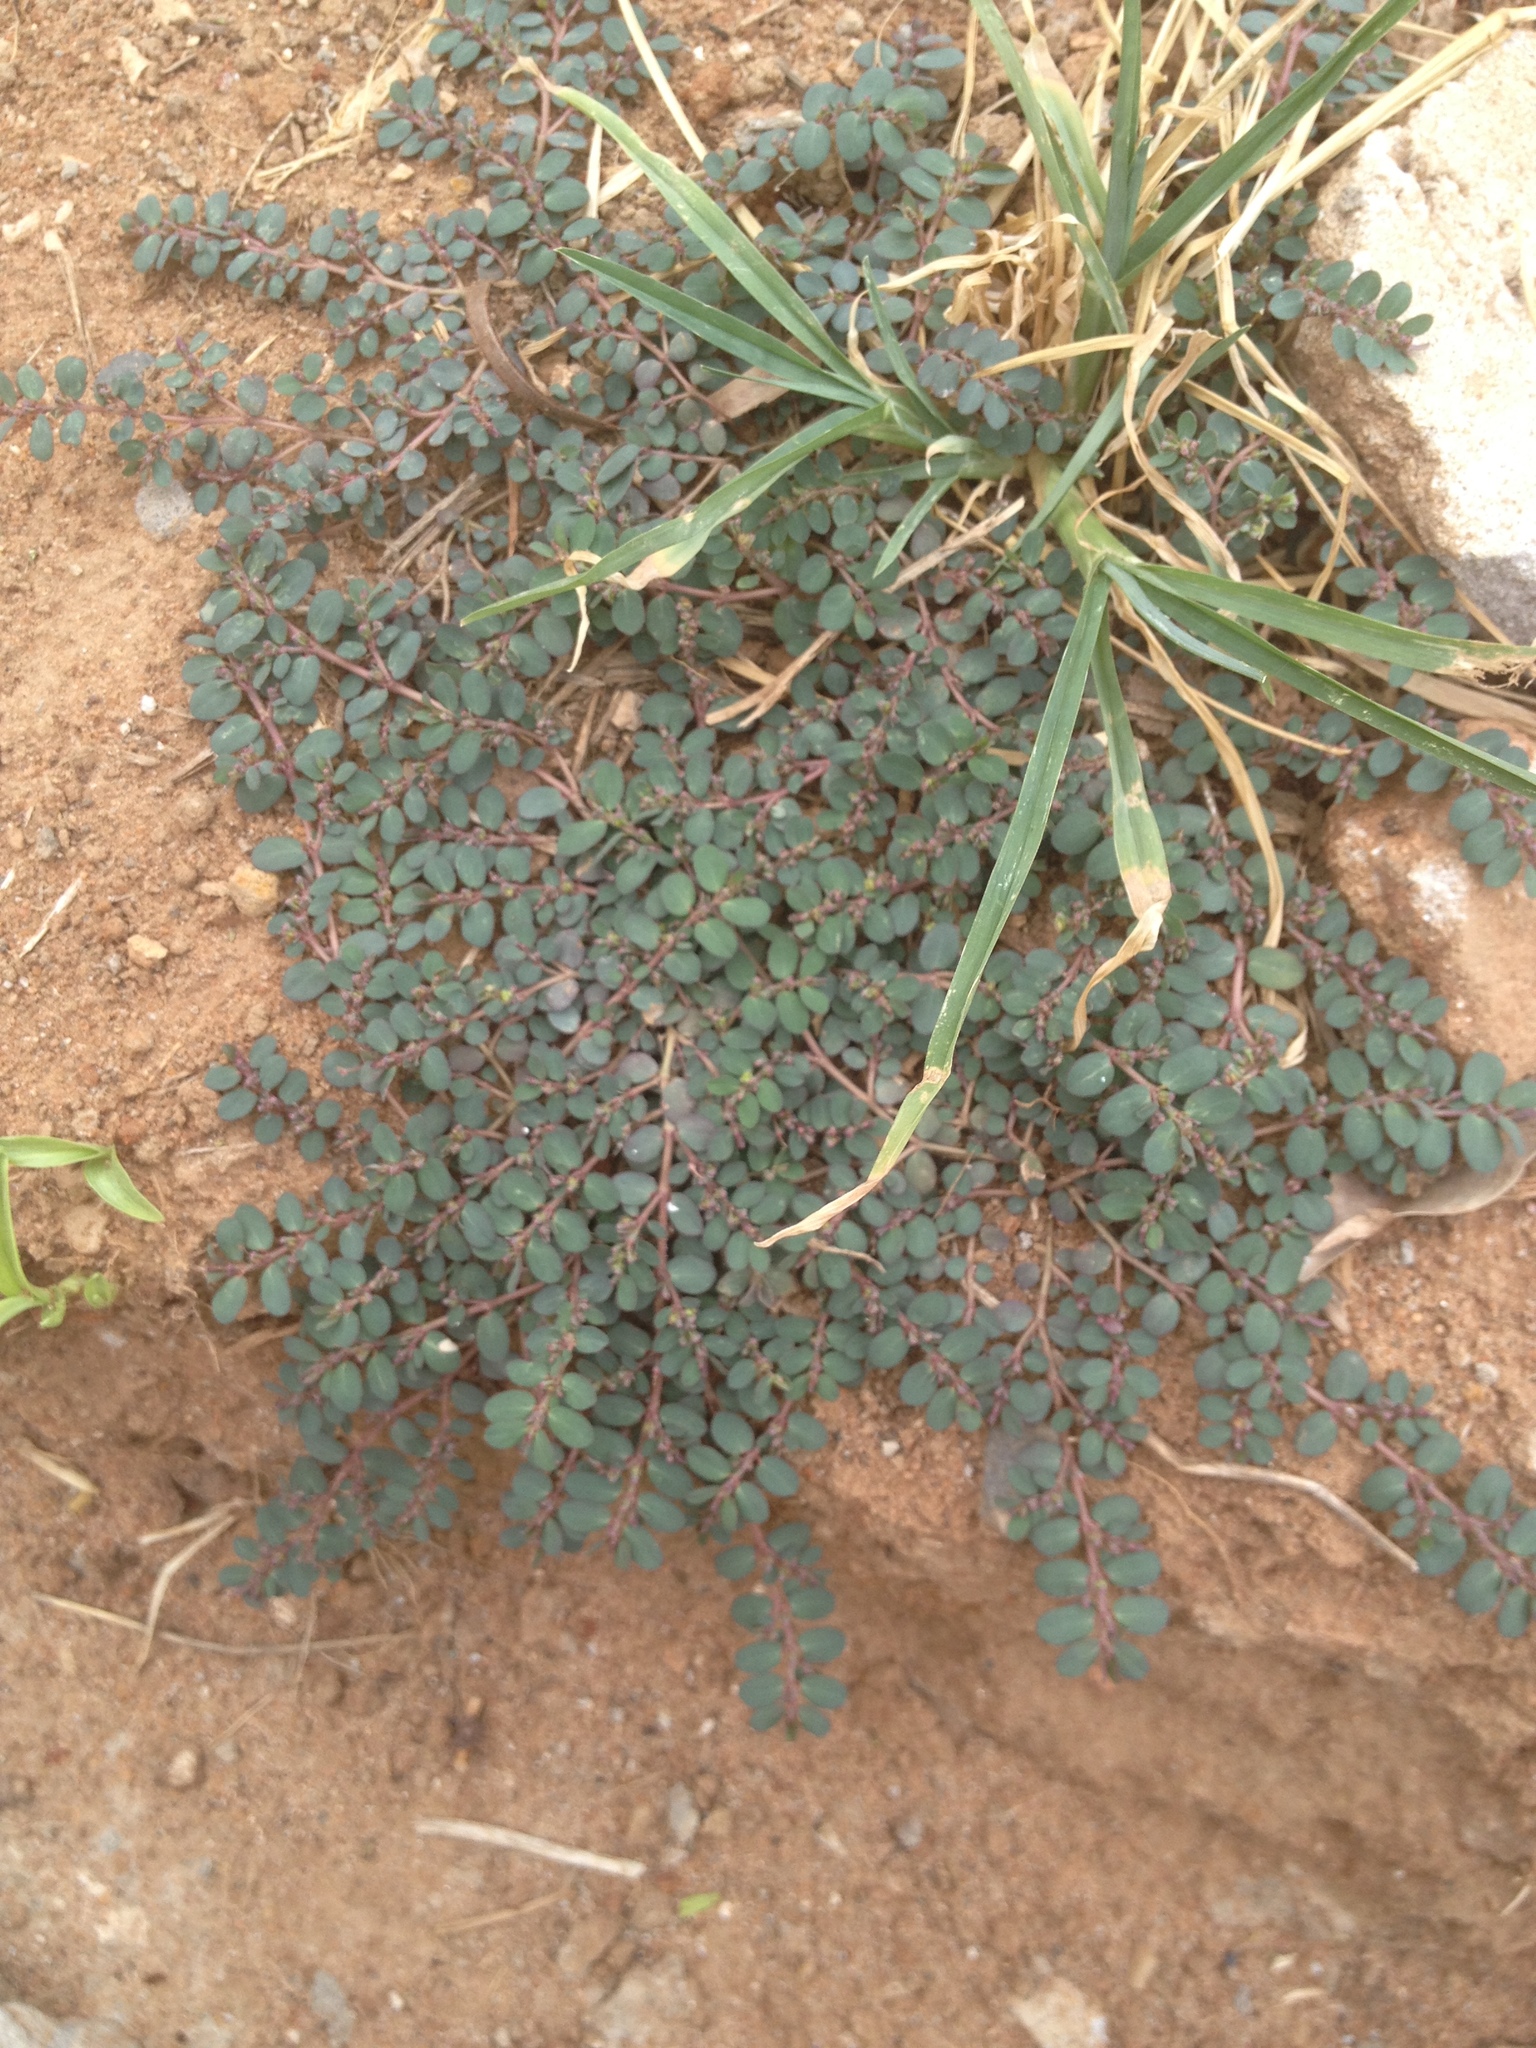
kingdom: Plantae
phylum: Tracheophyta
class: Magnoliopsida
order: Malpighiales
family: Euphorbiaceae
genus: Euphorbia
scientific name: Euphorbia prostrata
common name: Prostrate sandmat
